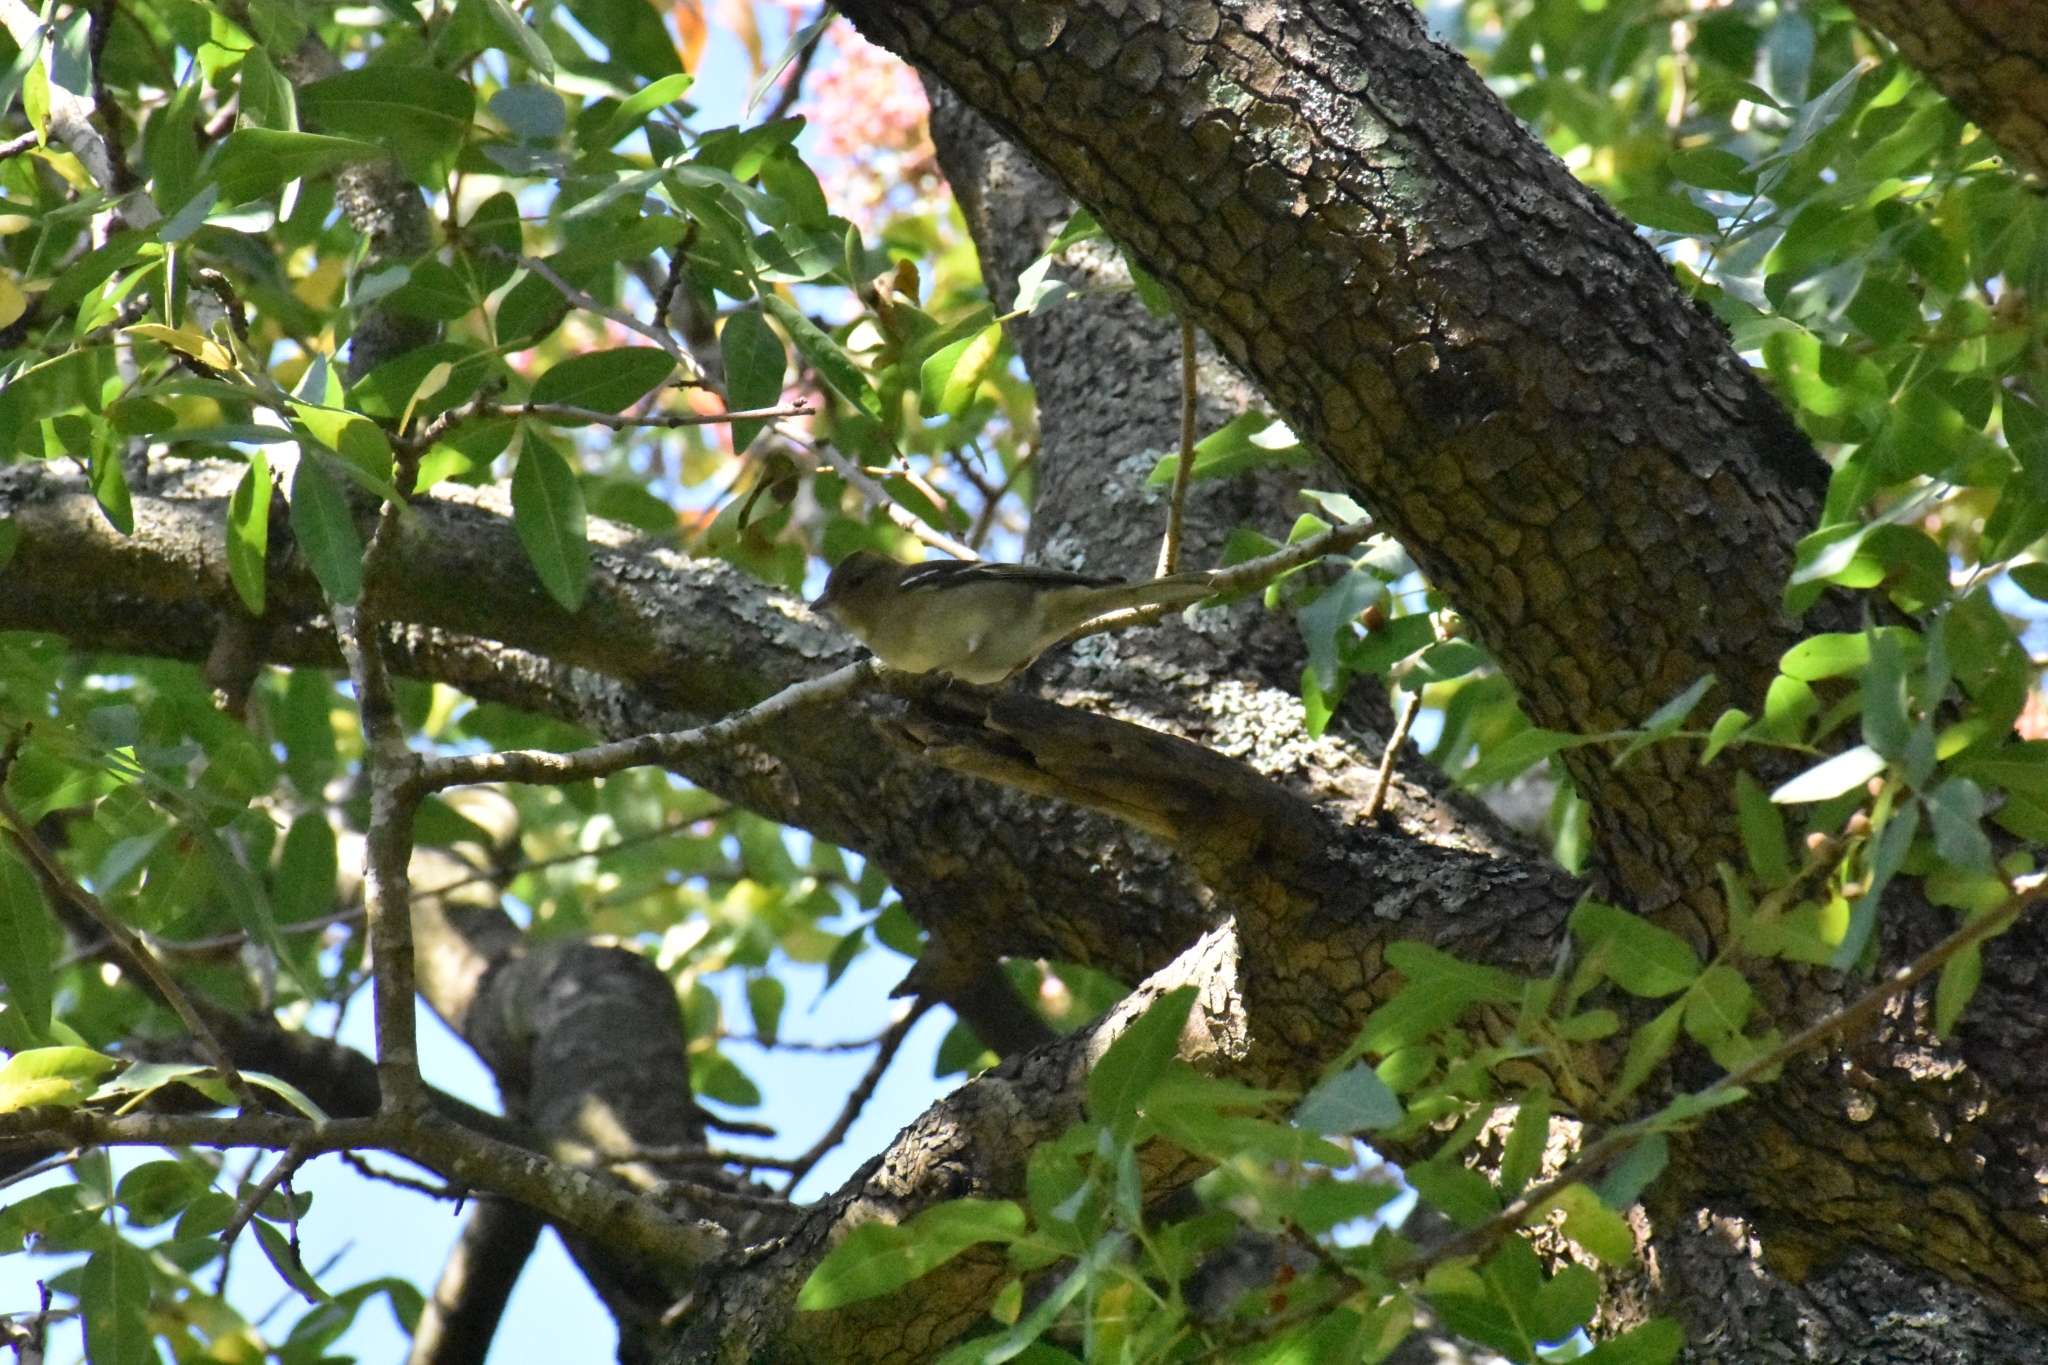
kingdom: Animalia
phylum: Chordata
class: Aves
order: Passeriformes
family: Fringillidae
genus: Fringilla
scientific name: Fringilla coelebs
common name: Common chaffinch
